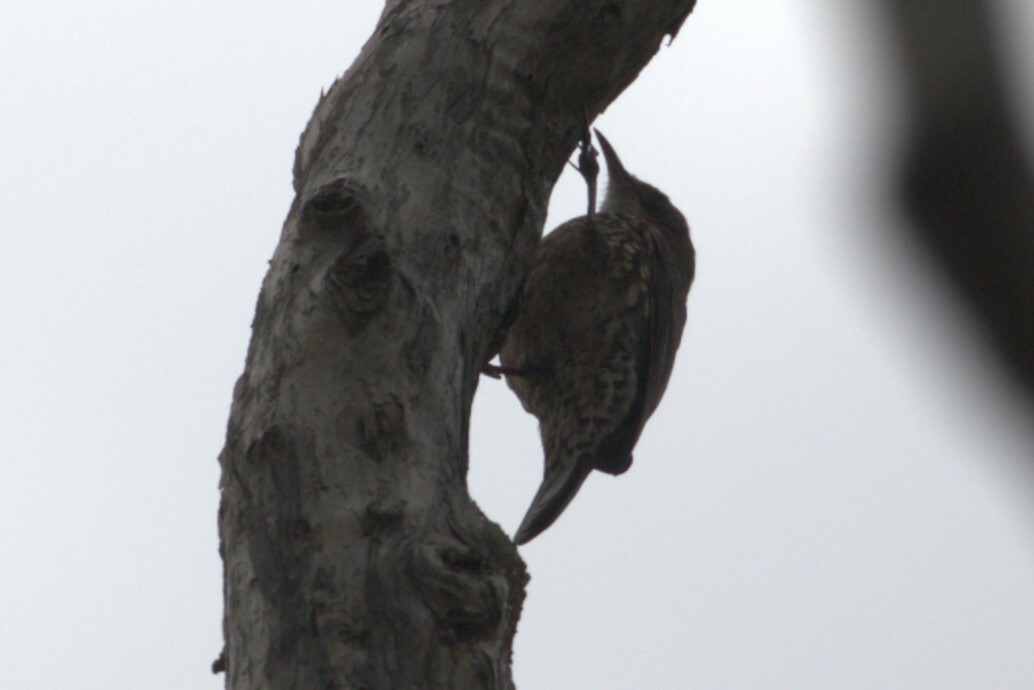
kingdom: Animalia
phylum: Chordata
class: Aves
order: Passeriformes
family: Climacteridae
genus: Cormobates
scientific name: Cormobates leucophaea
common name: White-throated treecreeper
